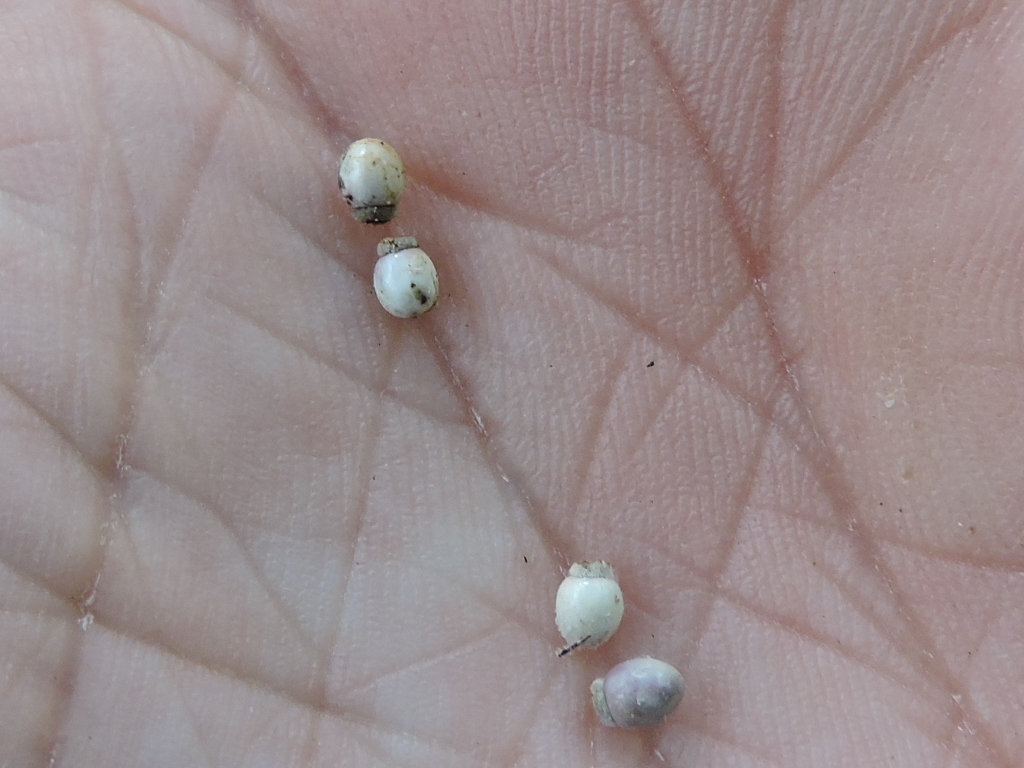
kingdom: Plantae
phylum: Tracheophyta
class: Liliopsida
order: Poales
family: Cyperaceae
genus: Scleria
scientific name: Scleria triglomerata
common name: Whip nutrush
